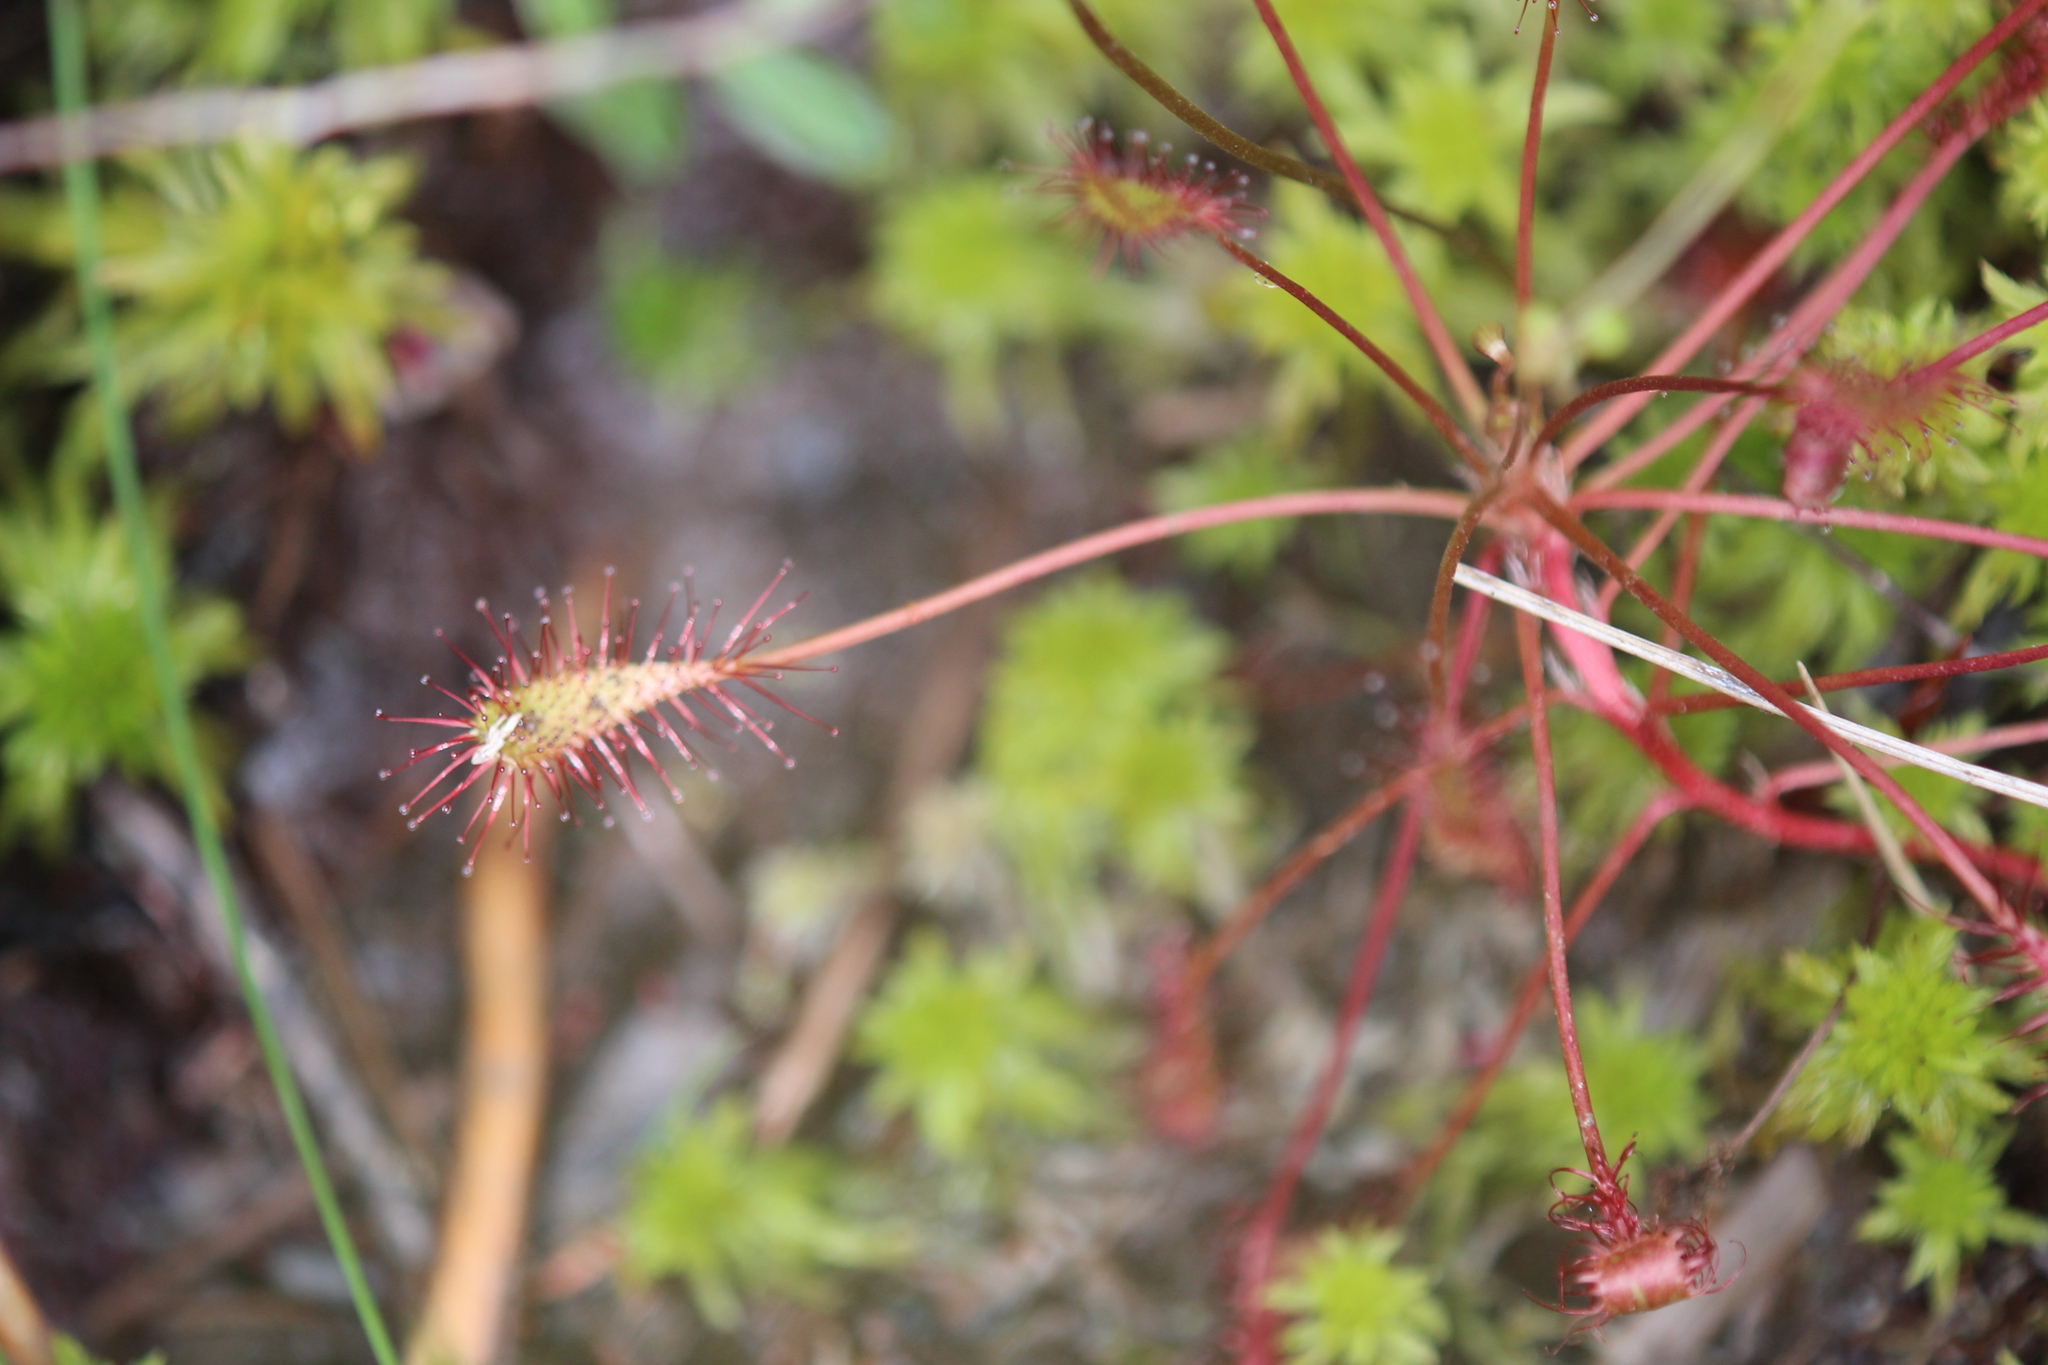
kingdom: Plantae
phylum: Tracheophyta
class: Magnoliopsida
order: Caryophyllales
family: Droseraceae
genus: Drosera
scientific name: Drosera intermedia
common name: Oblong-leaved sundew
